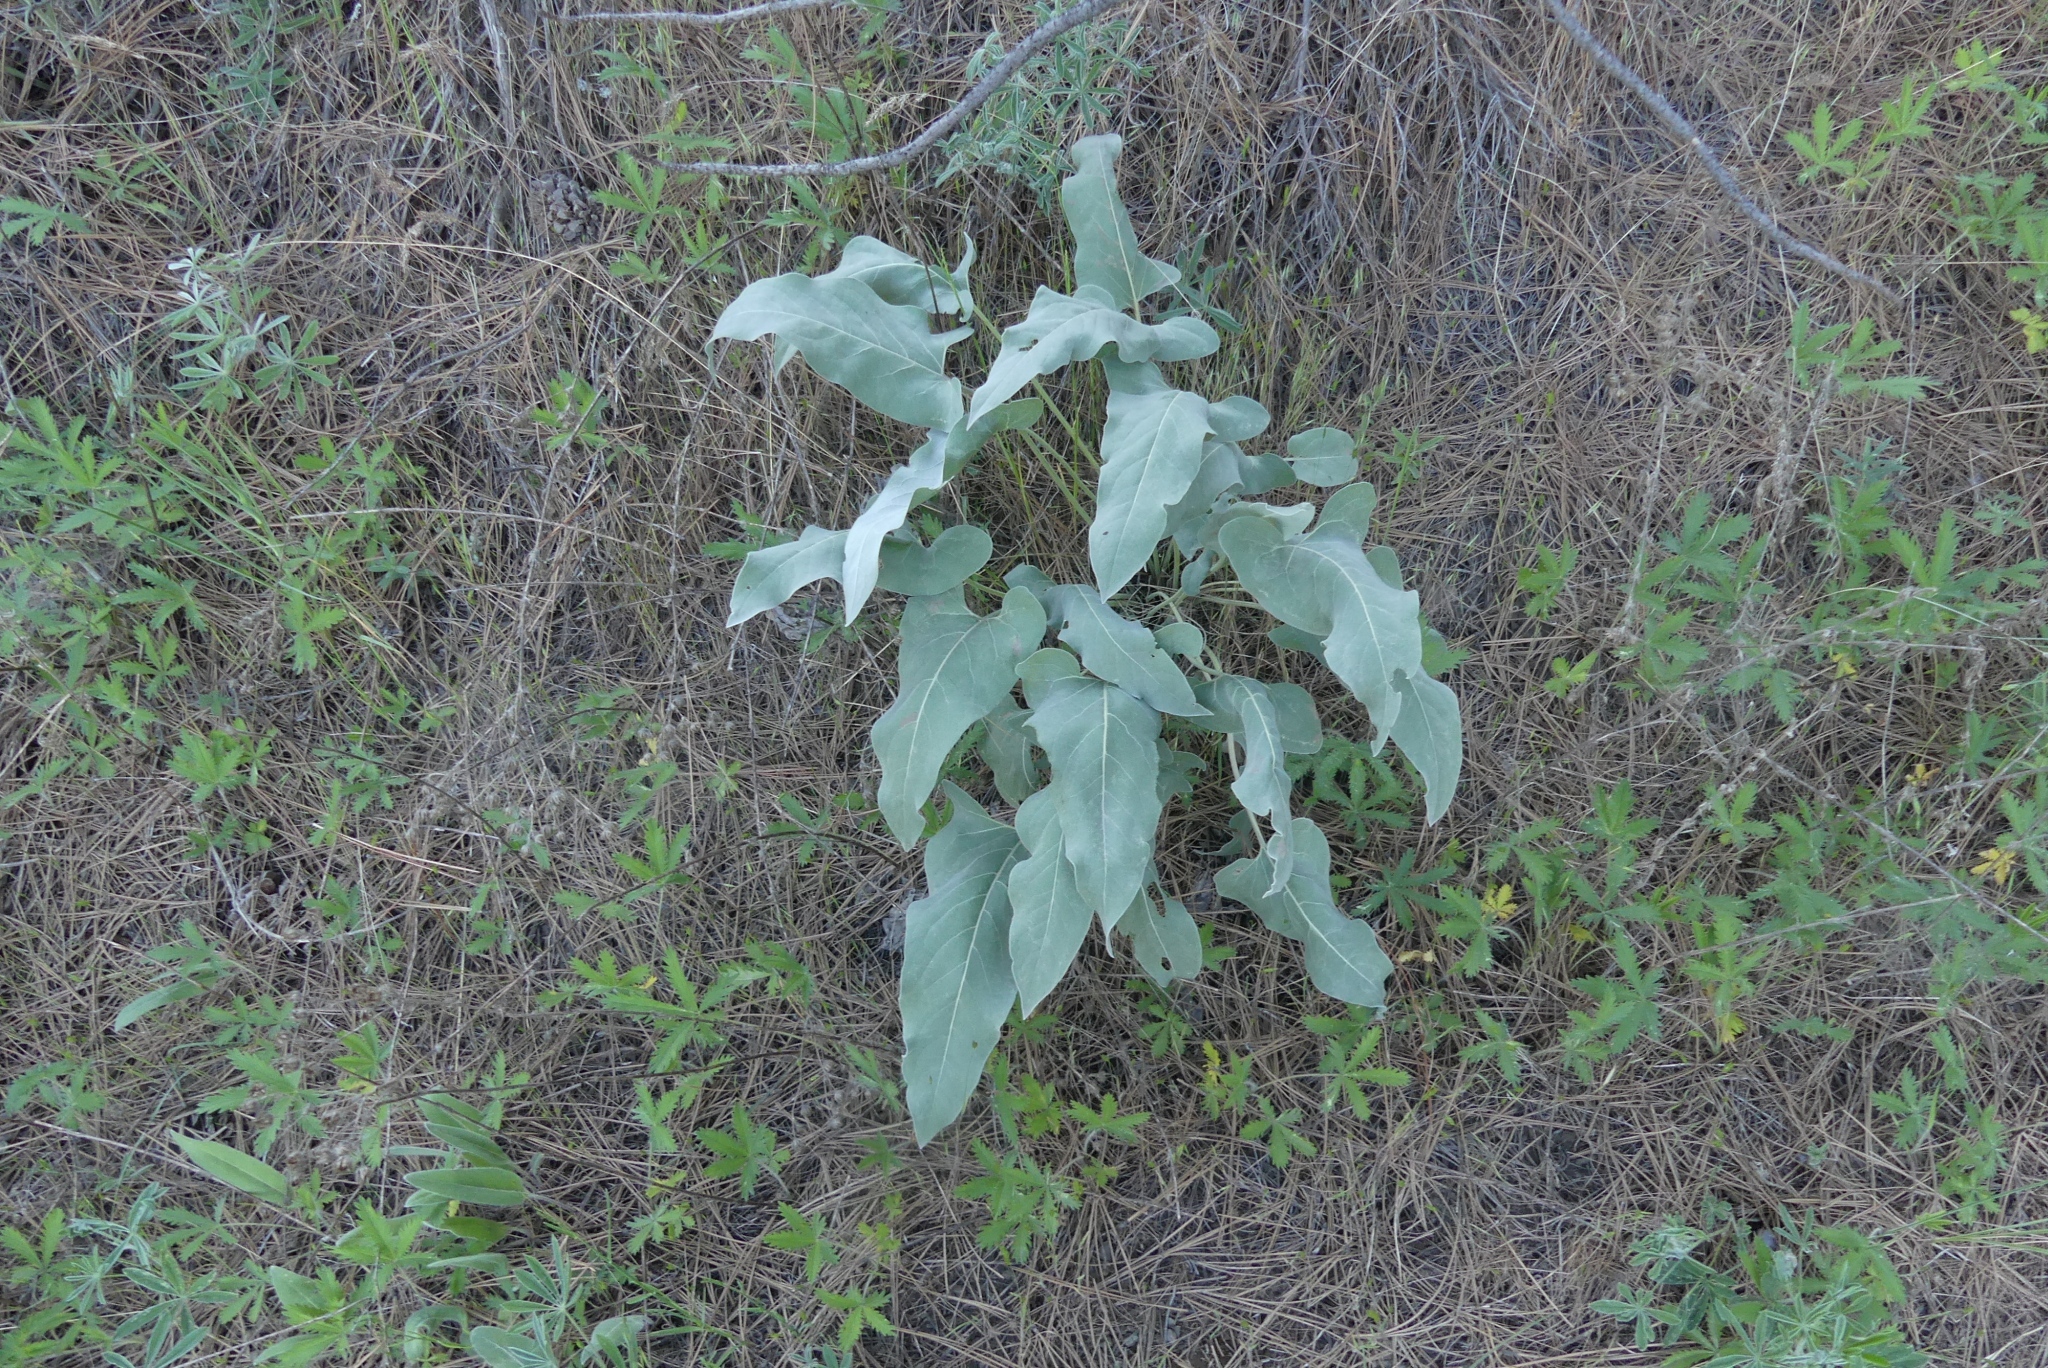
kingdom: Plantae
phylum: Tracheophyta
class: Magnoliopsida
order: Asterales
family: Asteraceae
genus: Wyethia
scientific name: Wyethia sagittata
